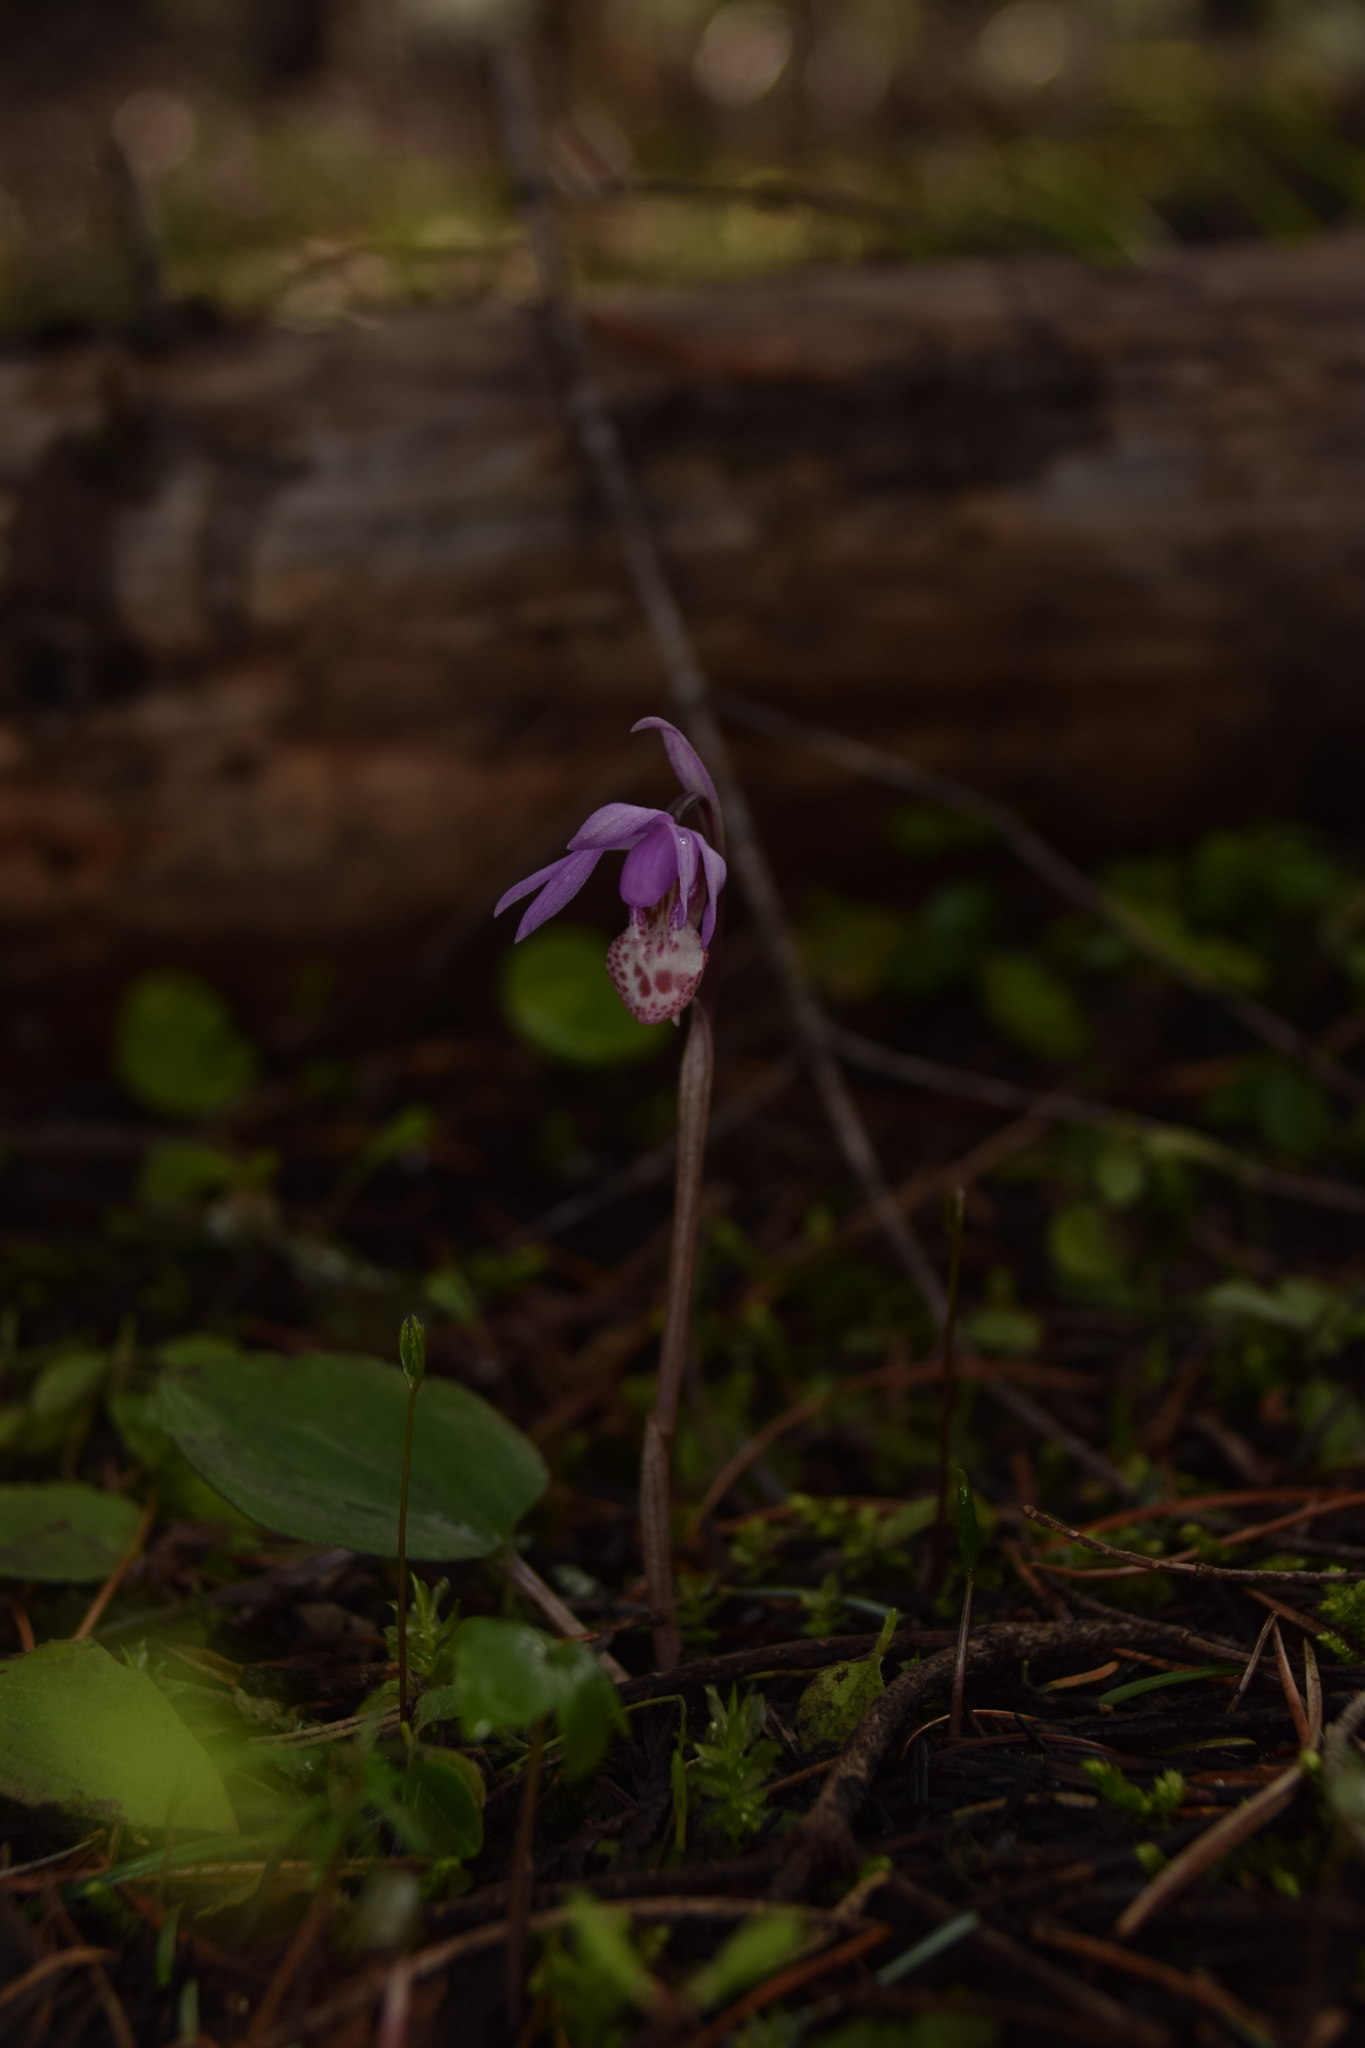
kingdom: Plantae
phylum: Tracheophyta
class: Liliopsida
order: Asparagales
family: Orchidaceae
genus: Calypso
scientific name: Calypso bulbosa
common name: Calypso
